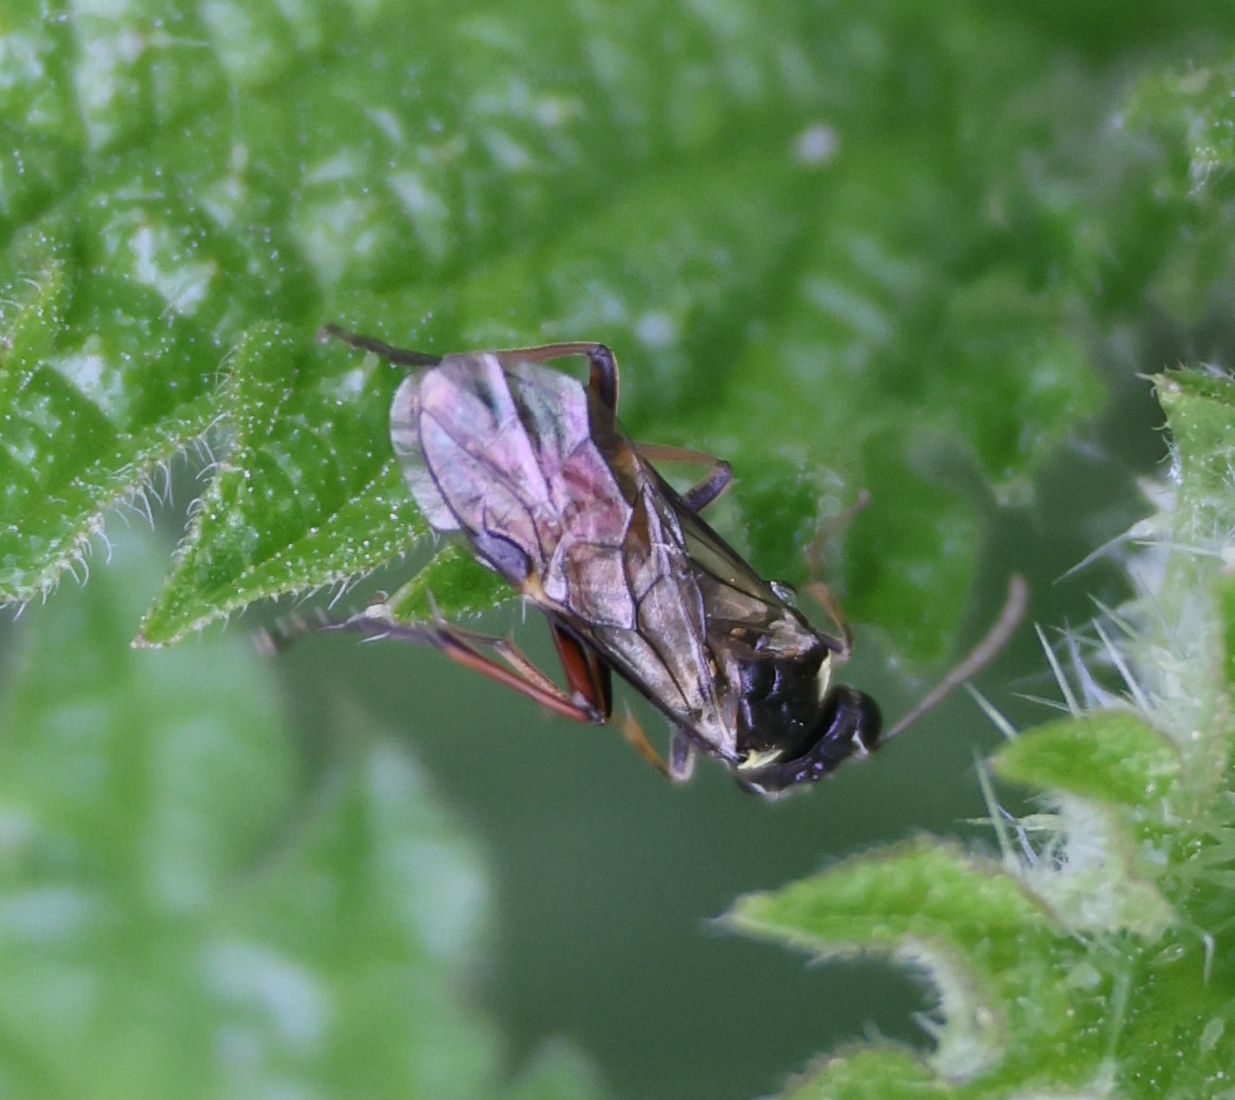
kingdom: Animalia
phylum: Arthropoda
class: Insecta
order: Hymenoptera
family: Tenthredinidae
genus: Aglaostigma
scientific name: Aglaostigma aucupariae
